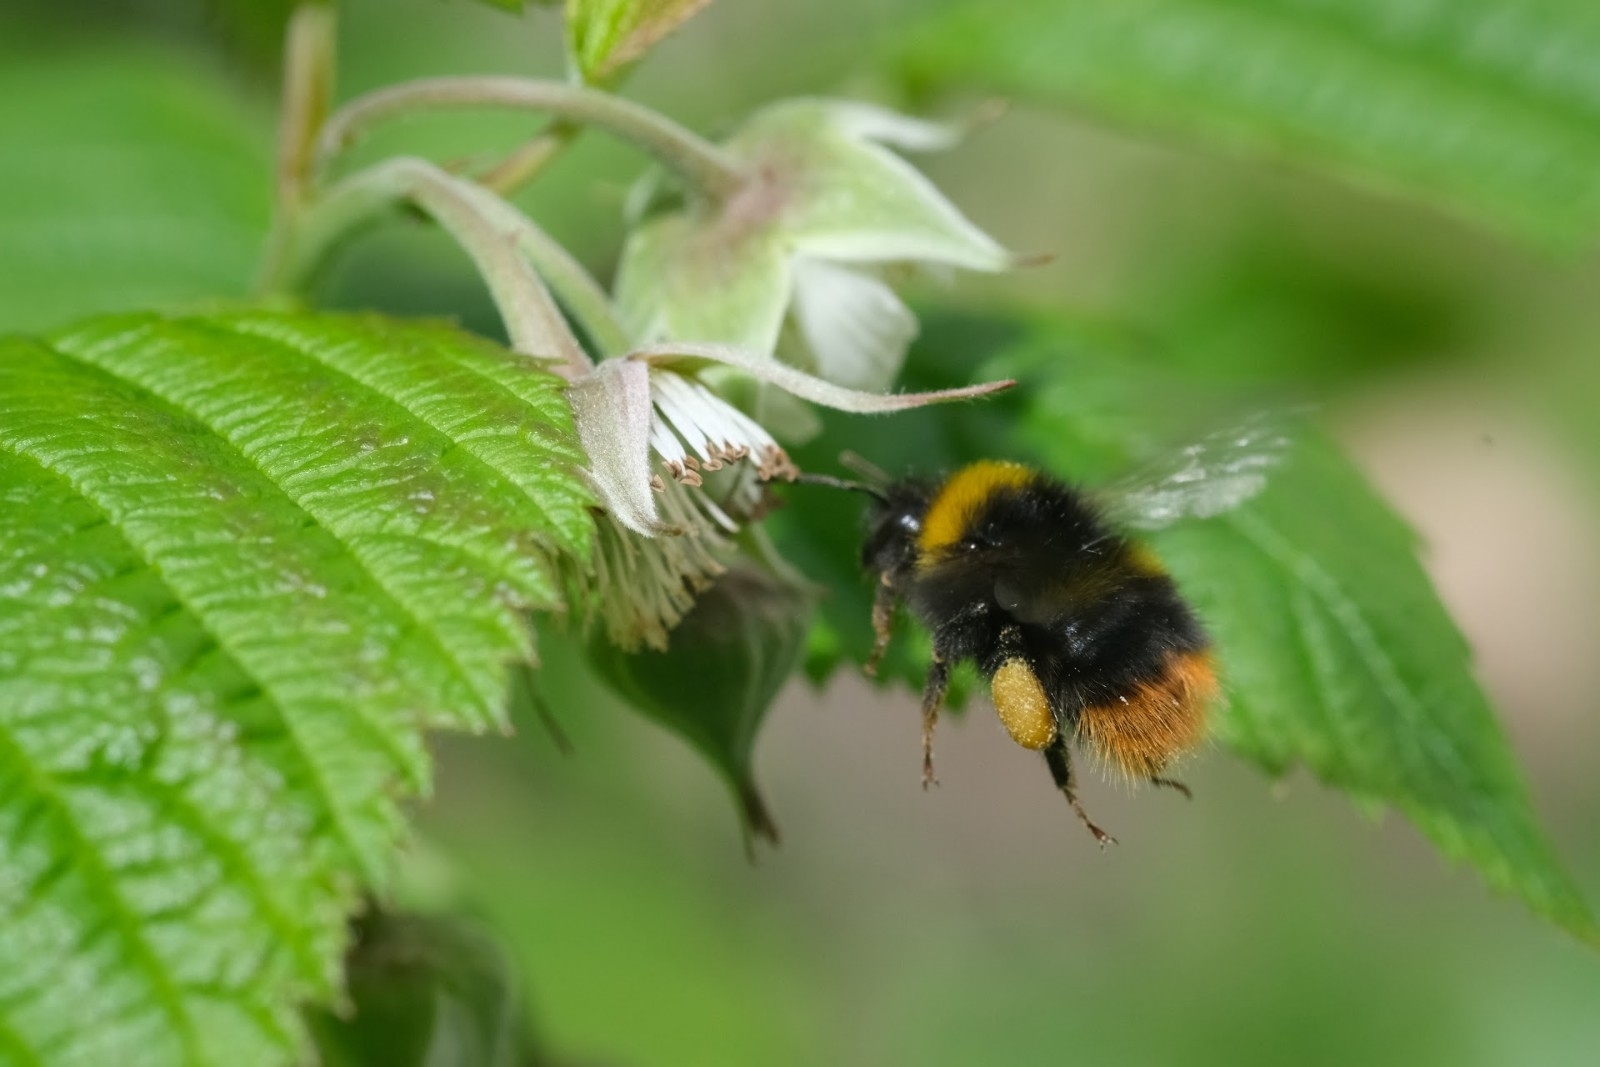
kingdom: Animalia
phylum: Arthropoda
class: Insecta
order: Hymenoptera
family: Apidae
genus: Bombus
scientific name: Bombus pratorum
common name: Early humble-bee
